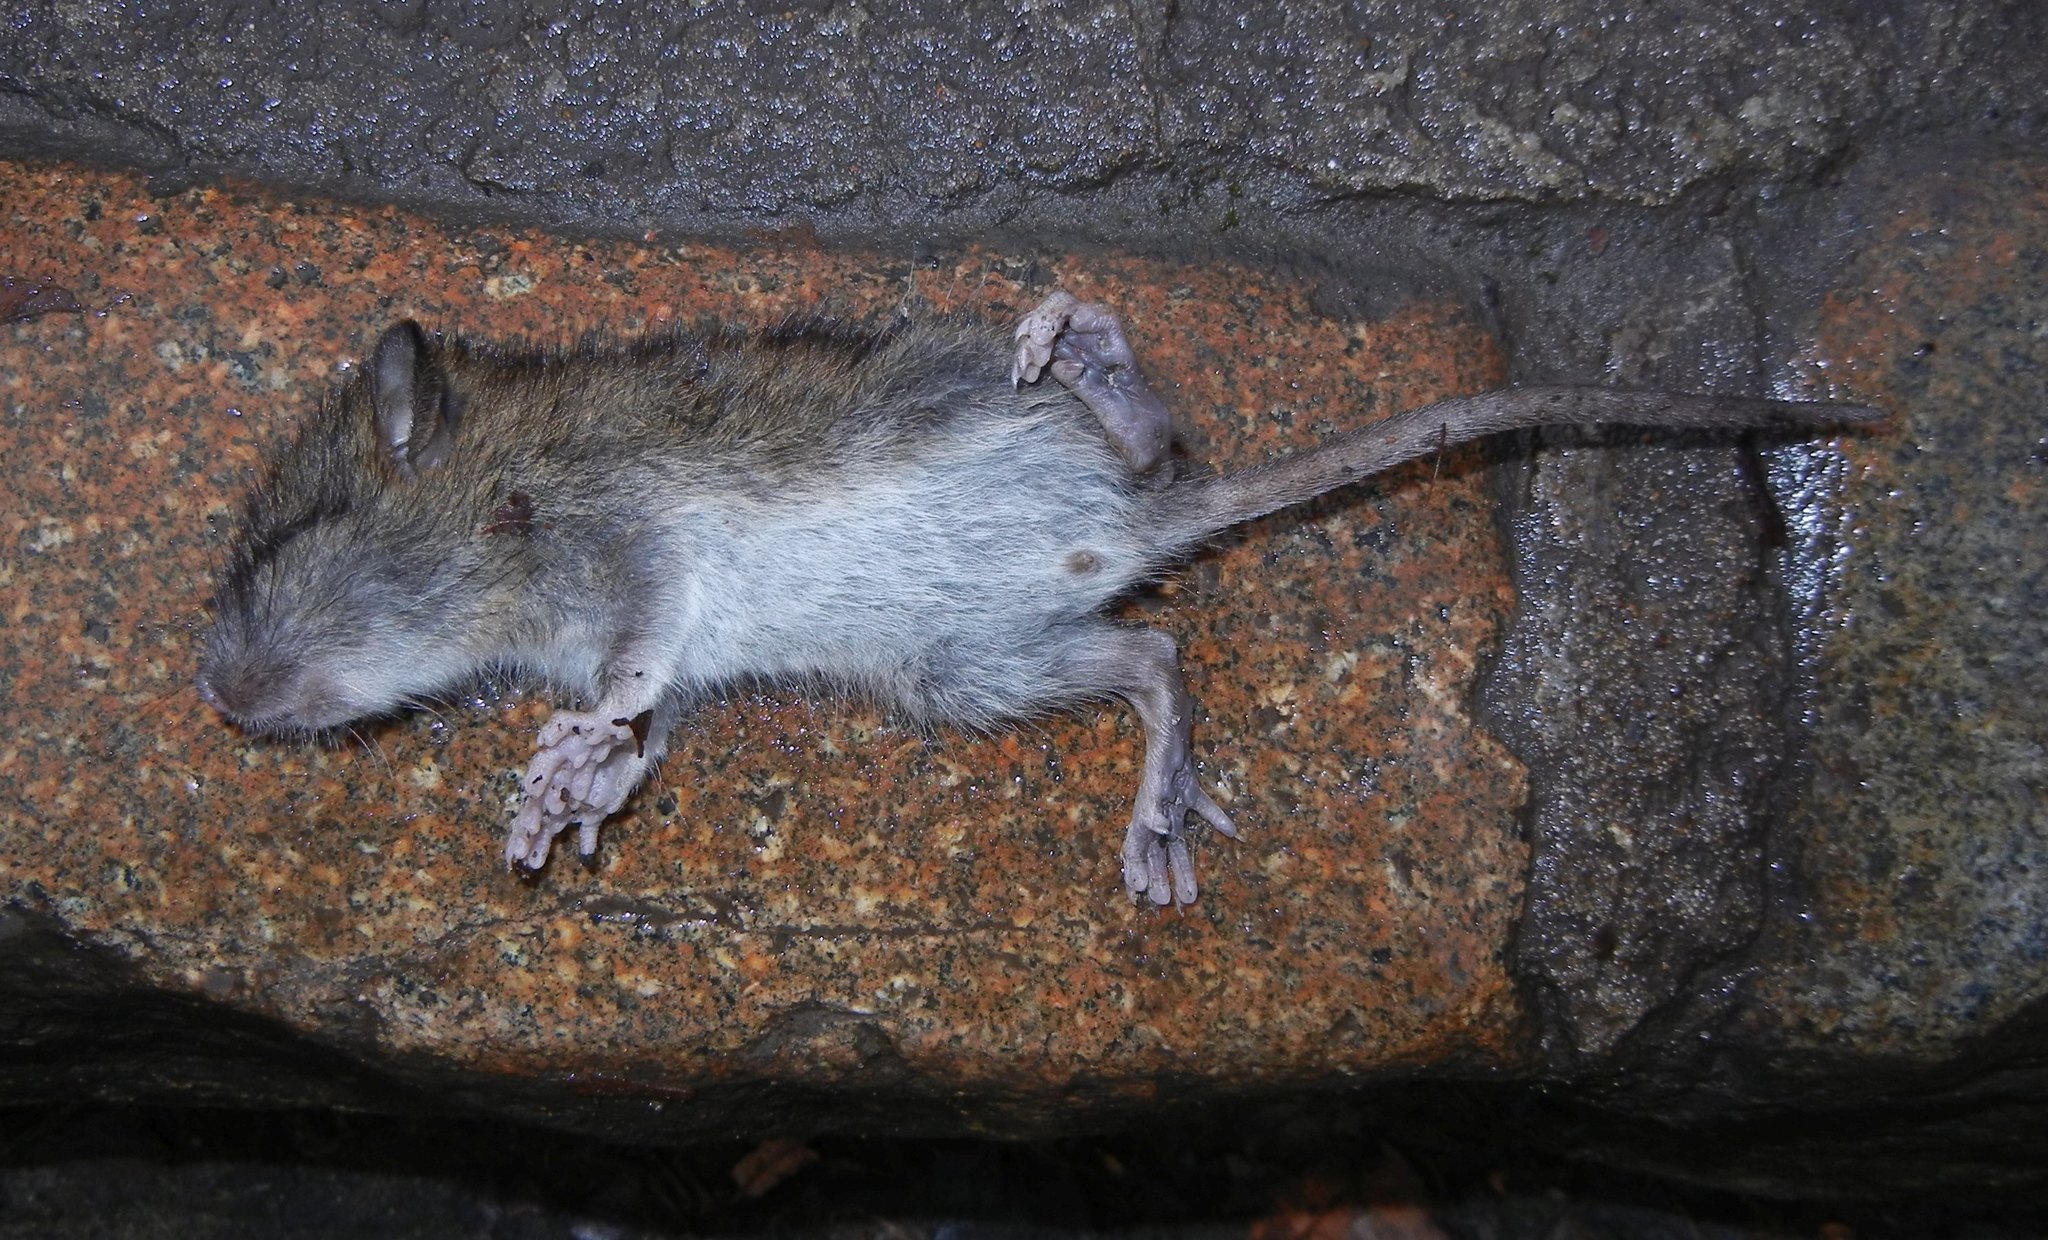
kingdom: Animalia
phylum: Chordata
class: Mammalia
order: Rodentia
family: Muridae
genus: Rattus
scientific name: Rattus norvegicus
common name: Brown rat
